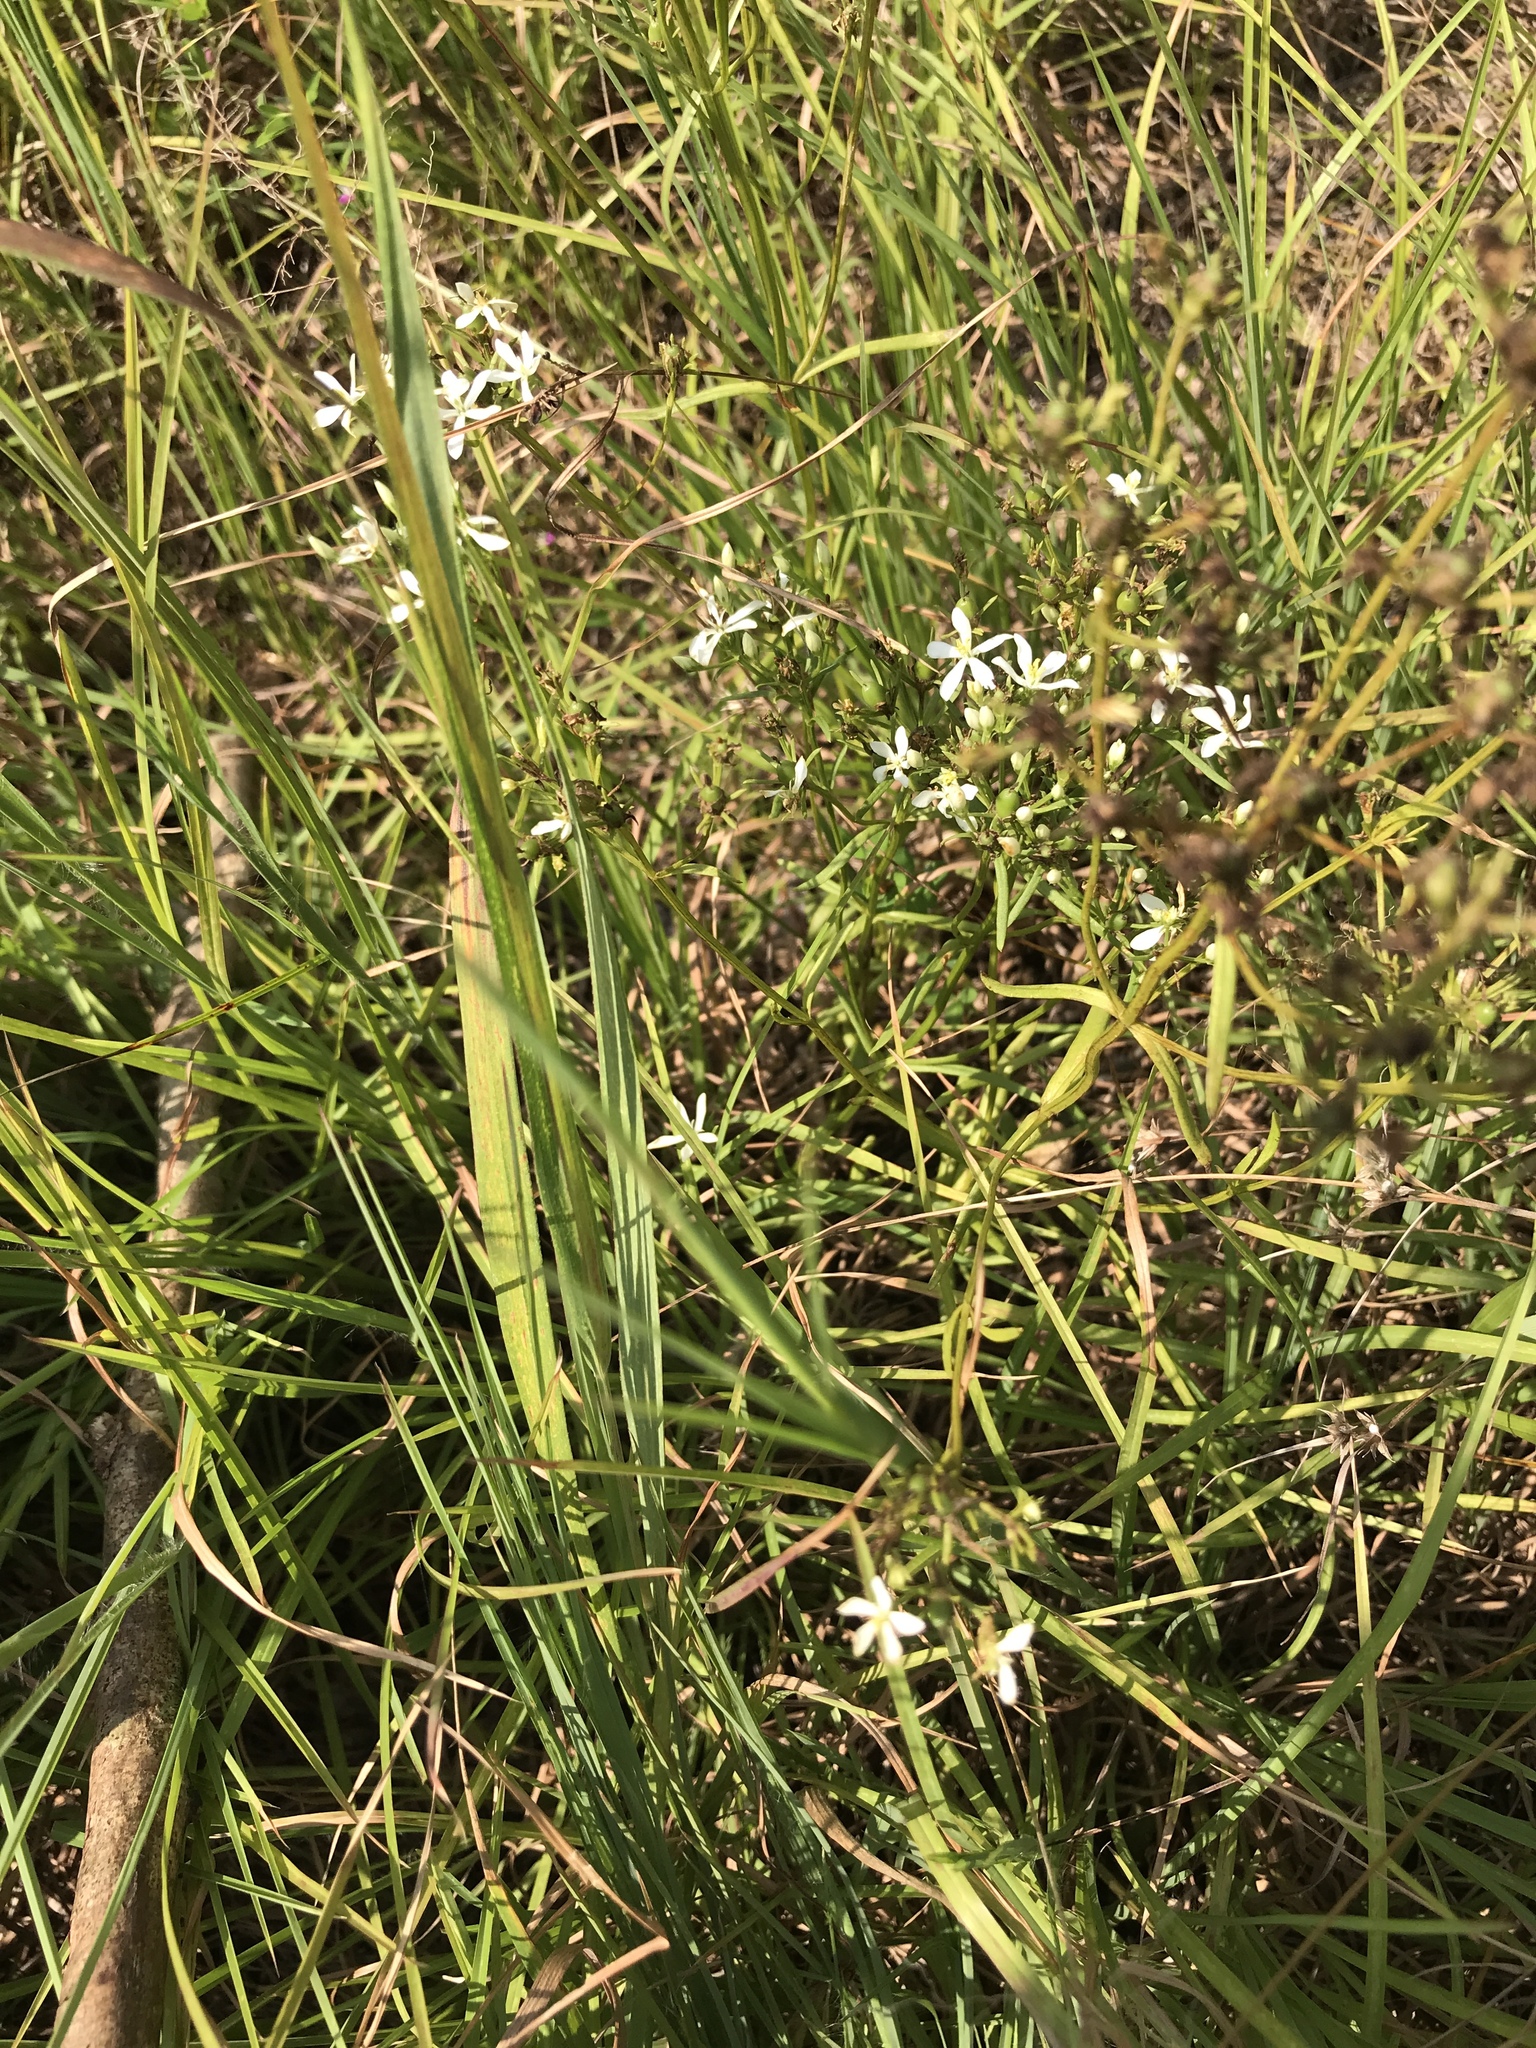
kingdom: Plantae
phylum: Tracheophyta
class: Magnoliopsida
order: Gentianales
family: Gentianaceae
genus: Sabatia
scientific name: Sabatia quadrangula
